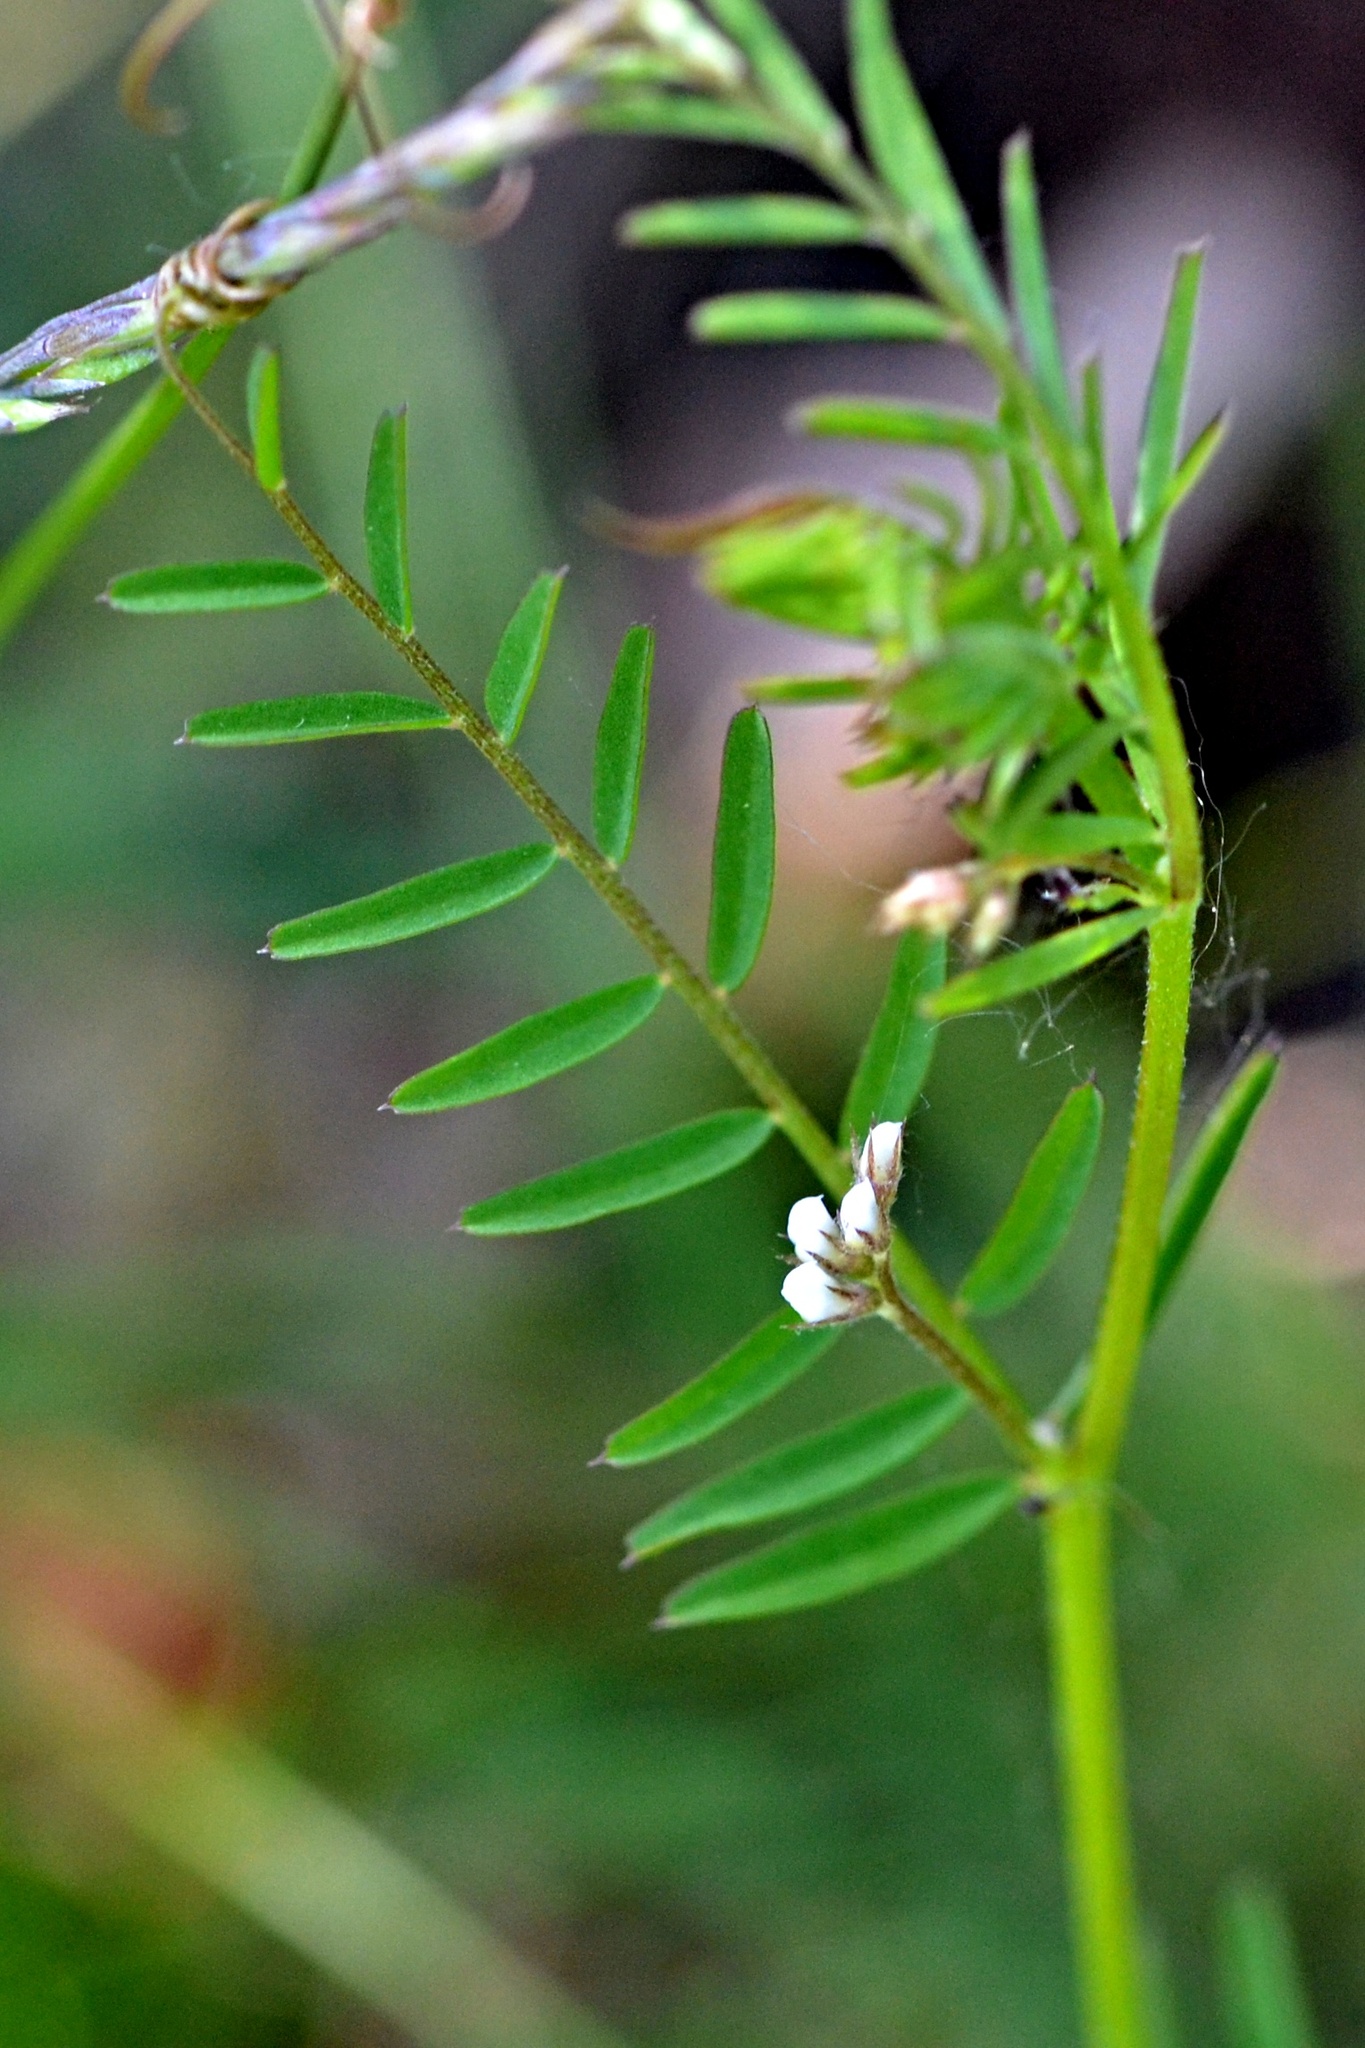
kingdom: Plantae
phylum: Tracheophyta
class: Magnoliopsida
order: Fabales
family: Fabaceae
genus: Vicia
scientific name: Vicia hirsuta
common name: Tiny vetch
